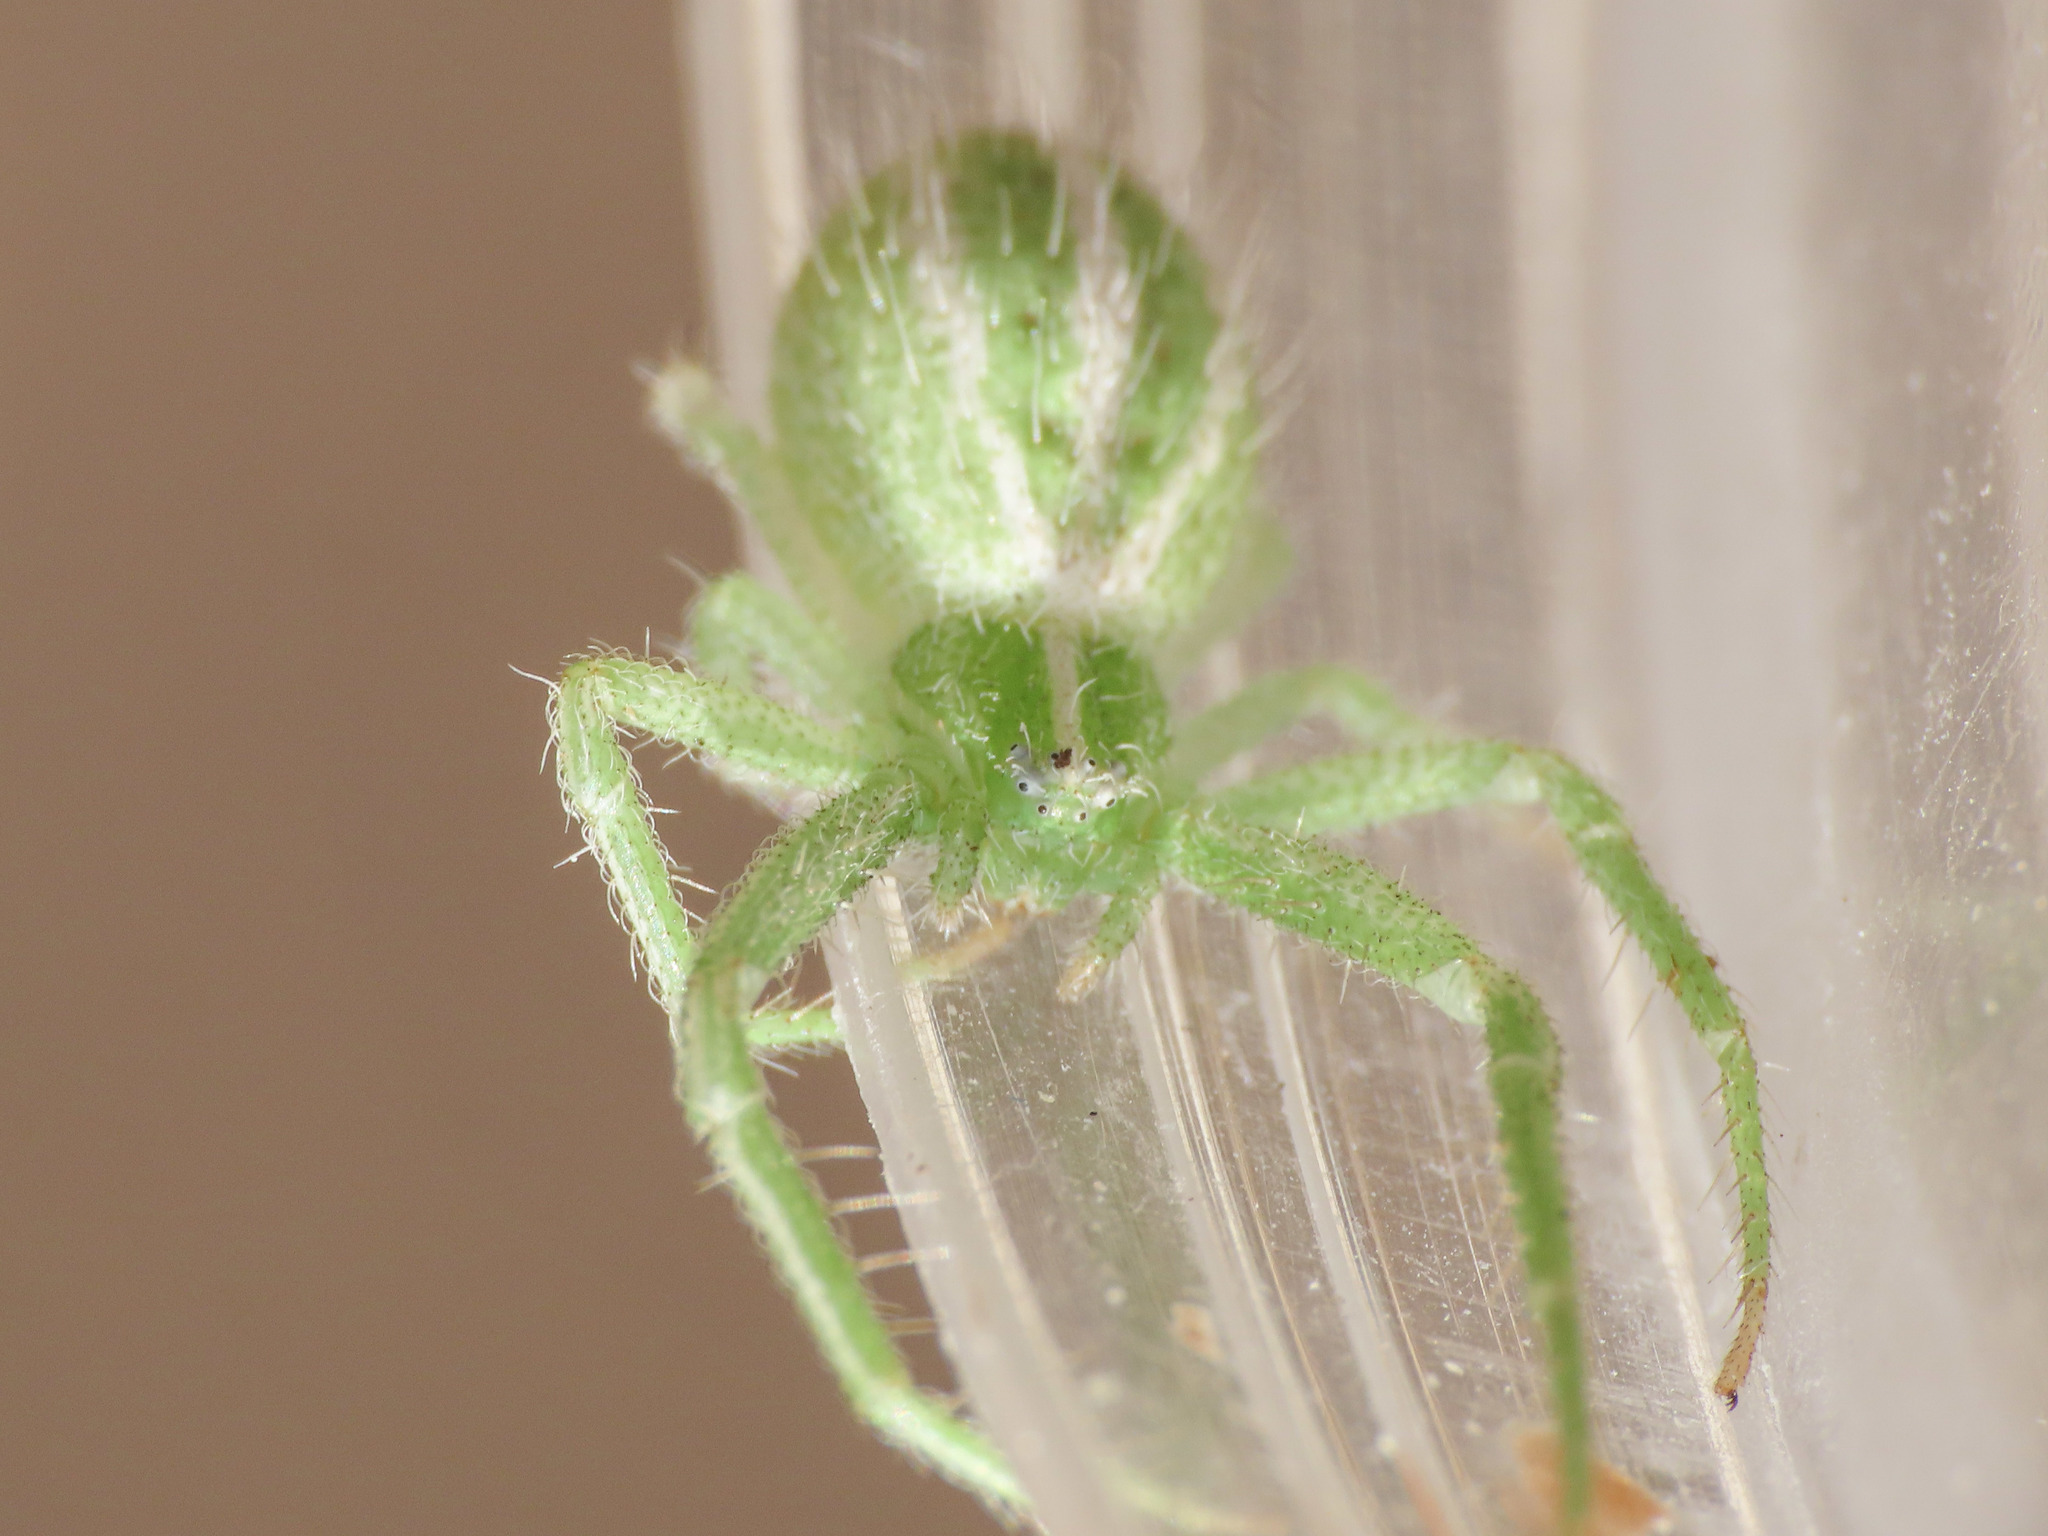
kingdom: Animalia
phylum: Arthropoda
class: Arachnida
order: Araneae
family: Thomisidae
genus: Heriaeus
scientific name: Heriaeus oblongus
